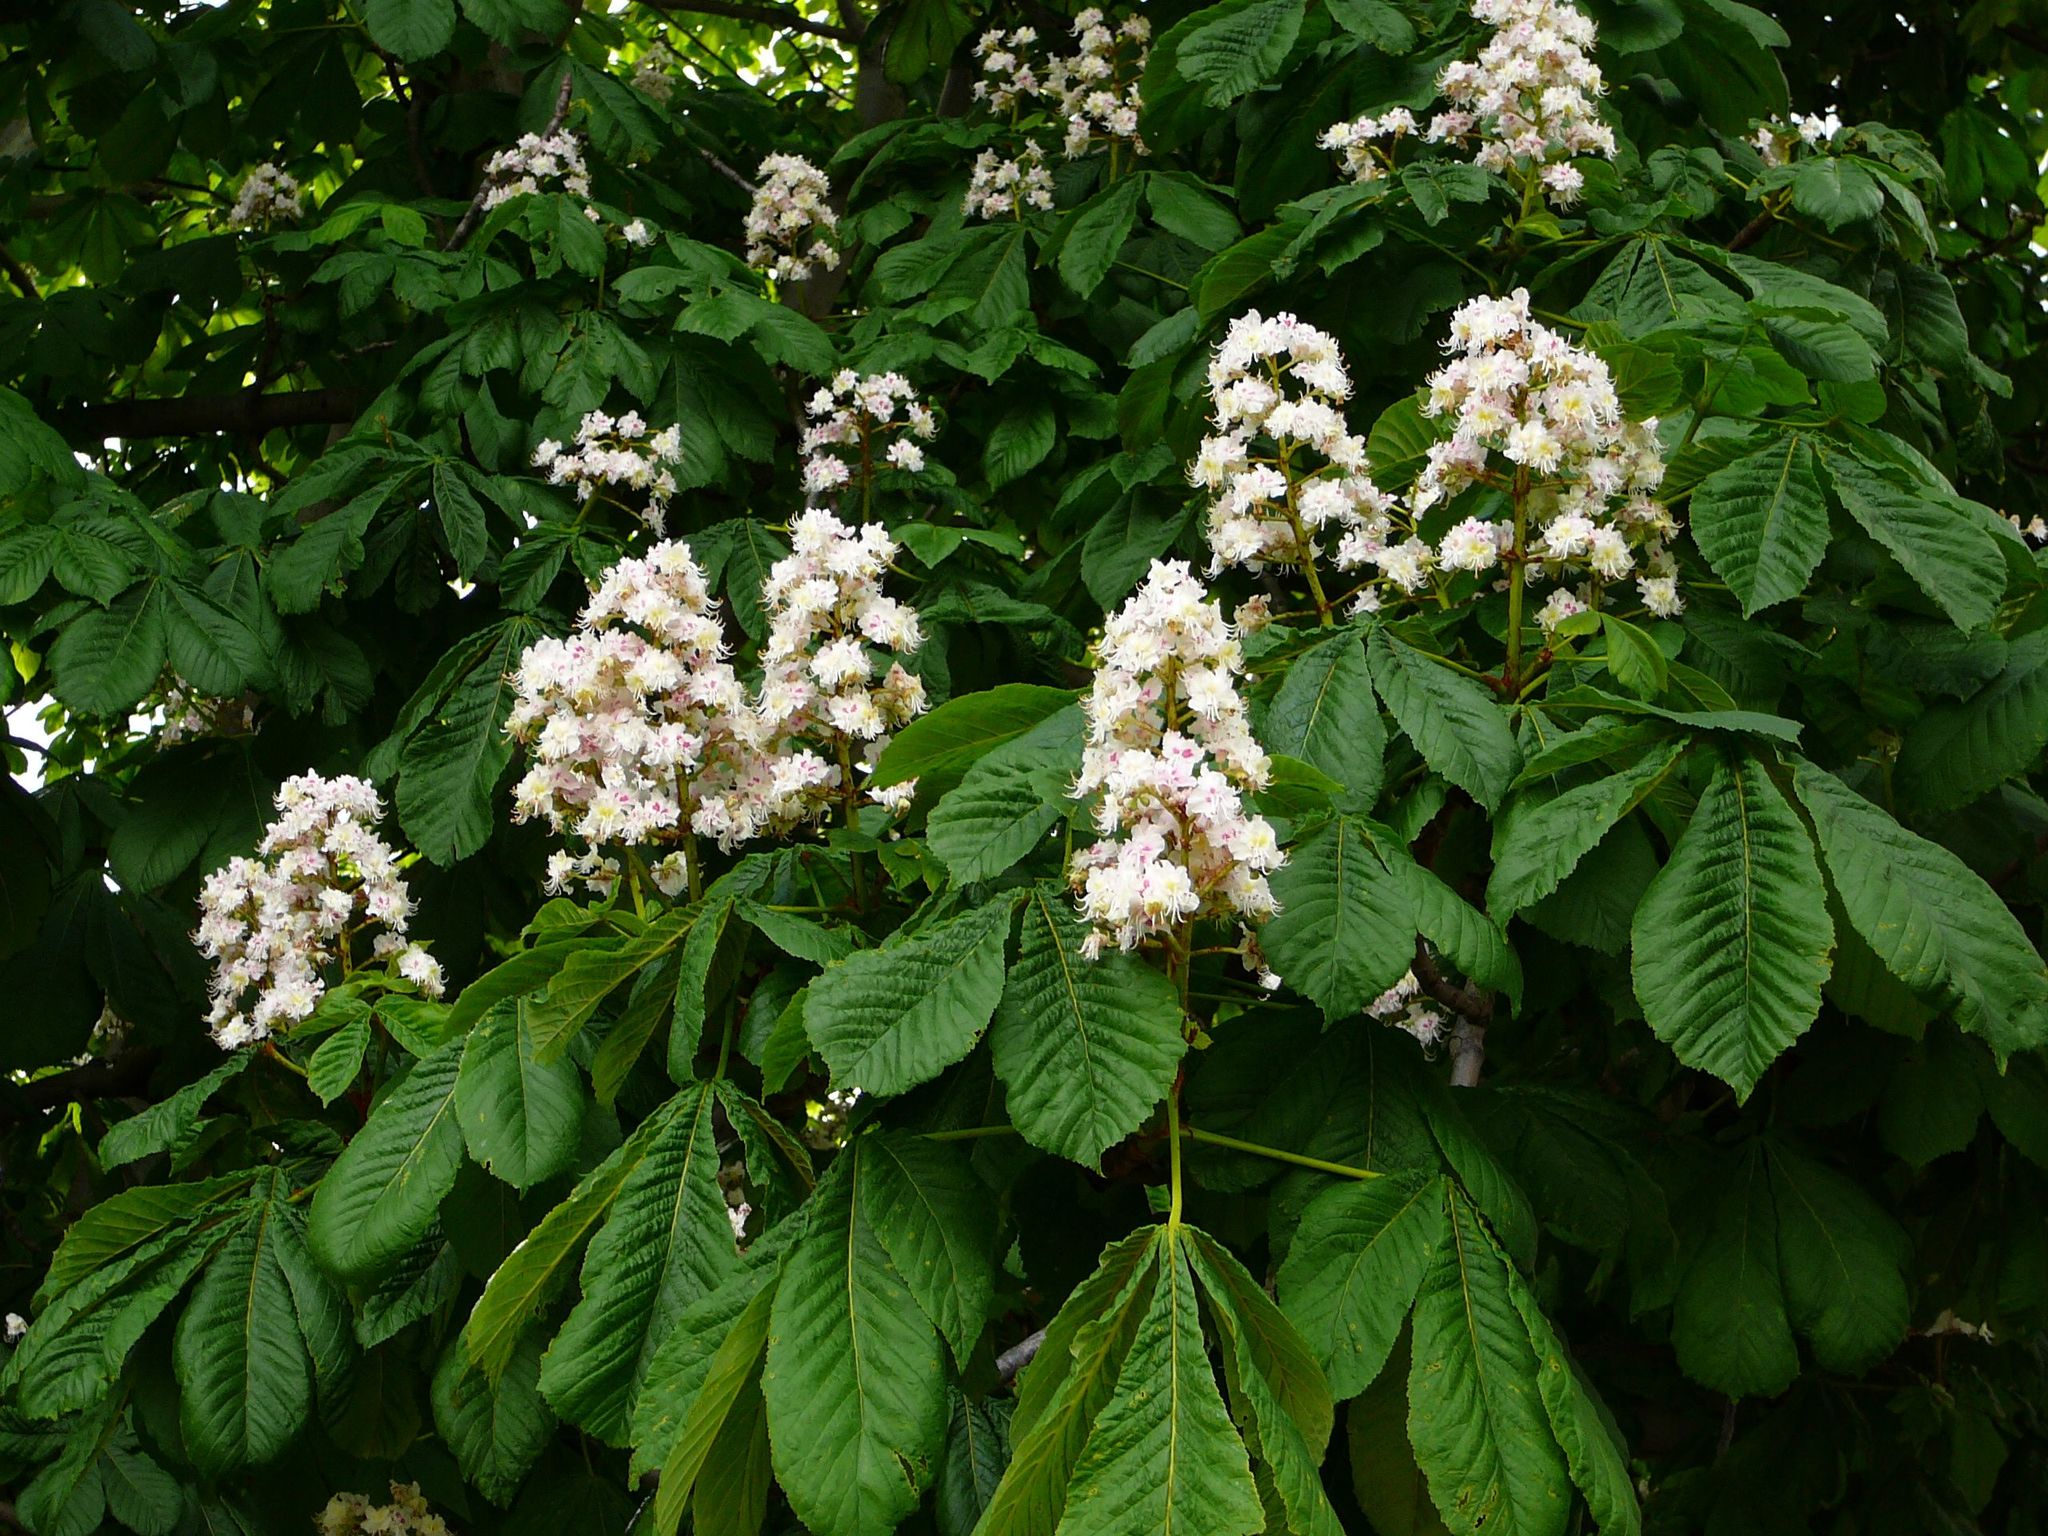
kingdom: Plantae
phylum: Tracheophyta
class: Magnoliopsida
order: Sapindales
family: Sapindaceae
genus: Aesculus
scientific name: Aesculus hippocastanum
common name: Horse-chestnut
